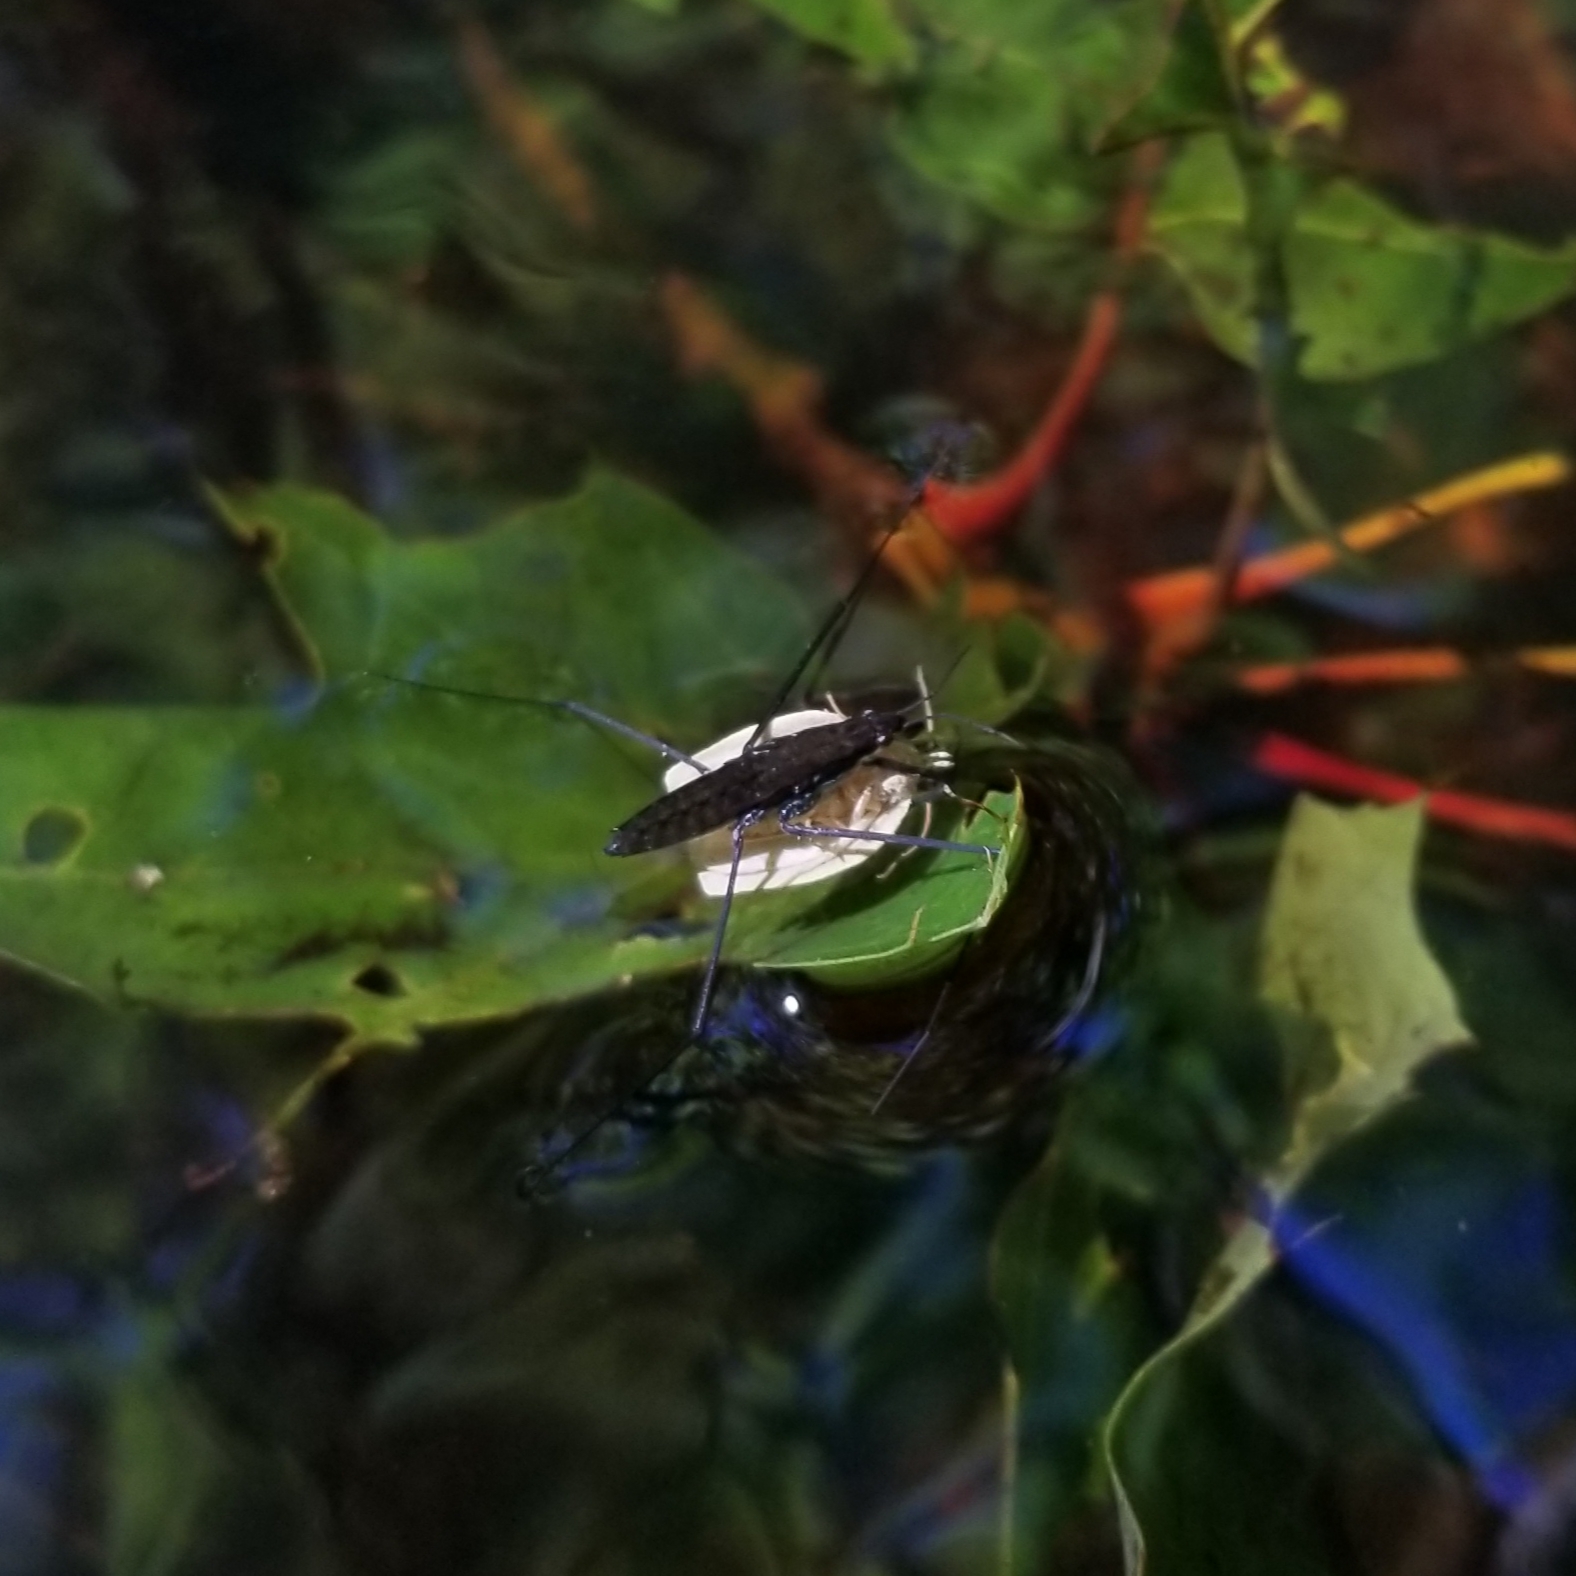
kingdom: Animalia
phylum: Arthropoda
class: Insecta
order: Hemiptera
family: Gerridae
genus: Aquarius
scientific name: Aquarius remigis
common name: Common water strider
